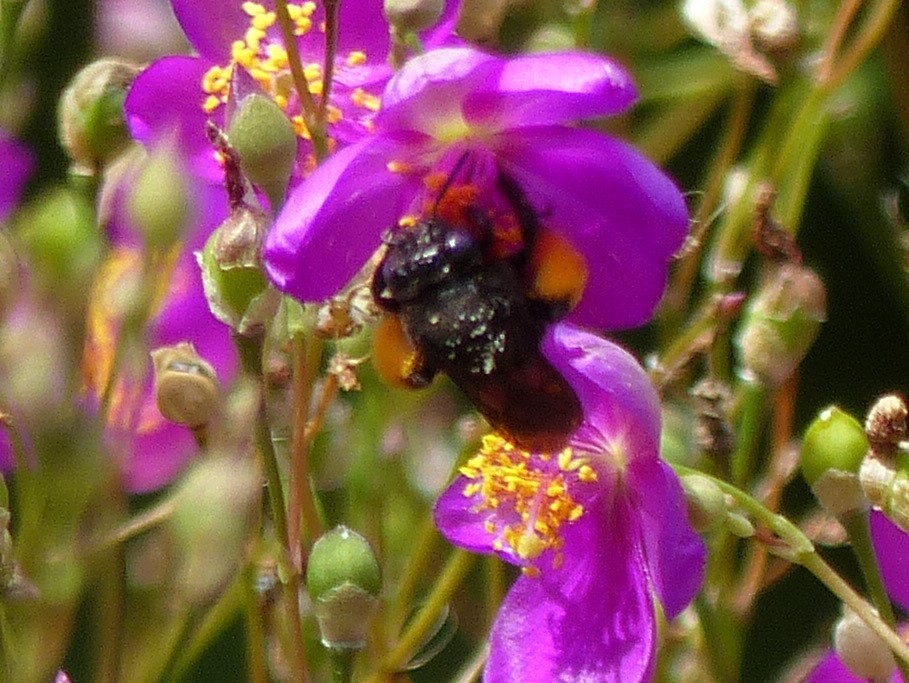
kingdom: Animalia
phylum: Arthropoda
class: Insecta
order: Hymenoptera
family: Apidae
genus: Melissodes
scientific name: Melissodes bimaculatus
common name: Two-spotted long-horned bee
